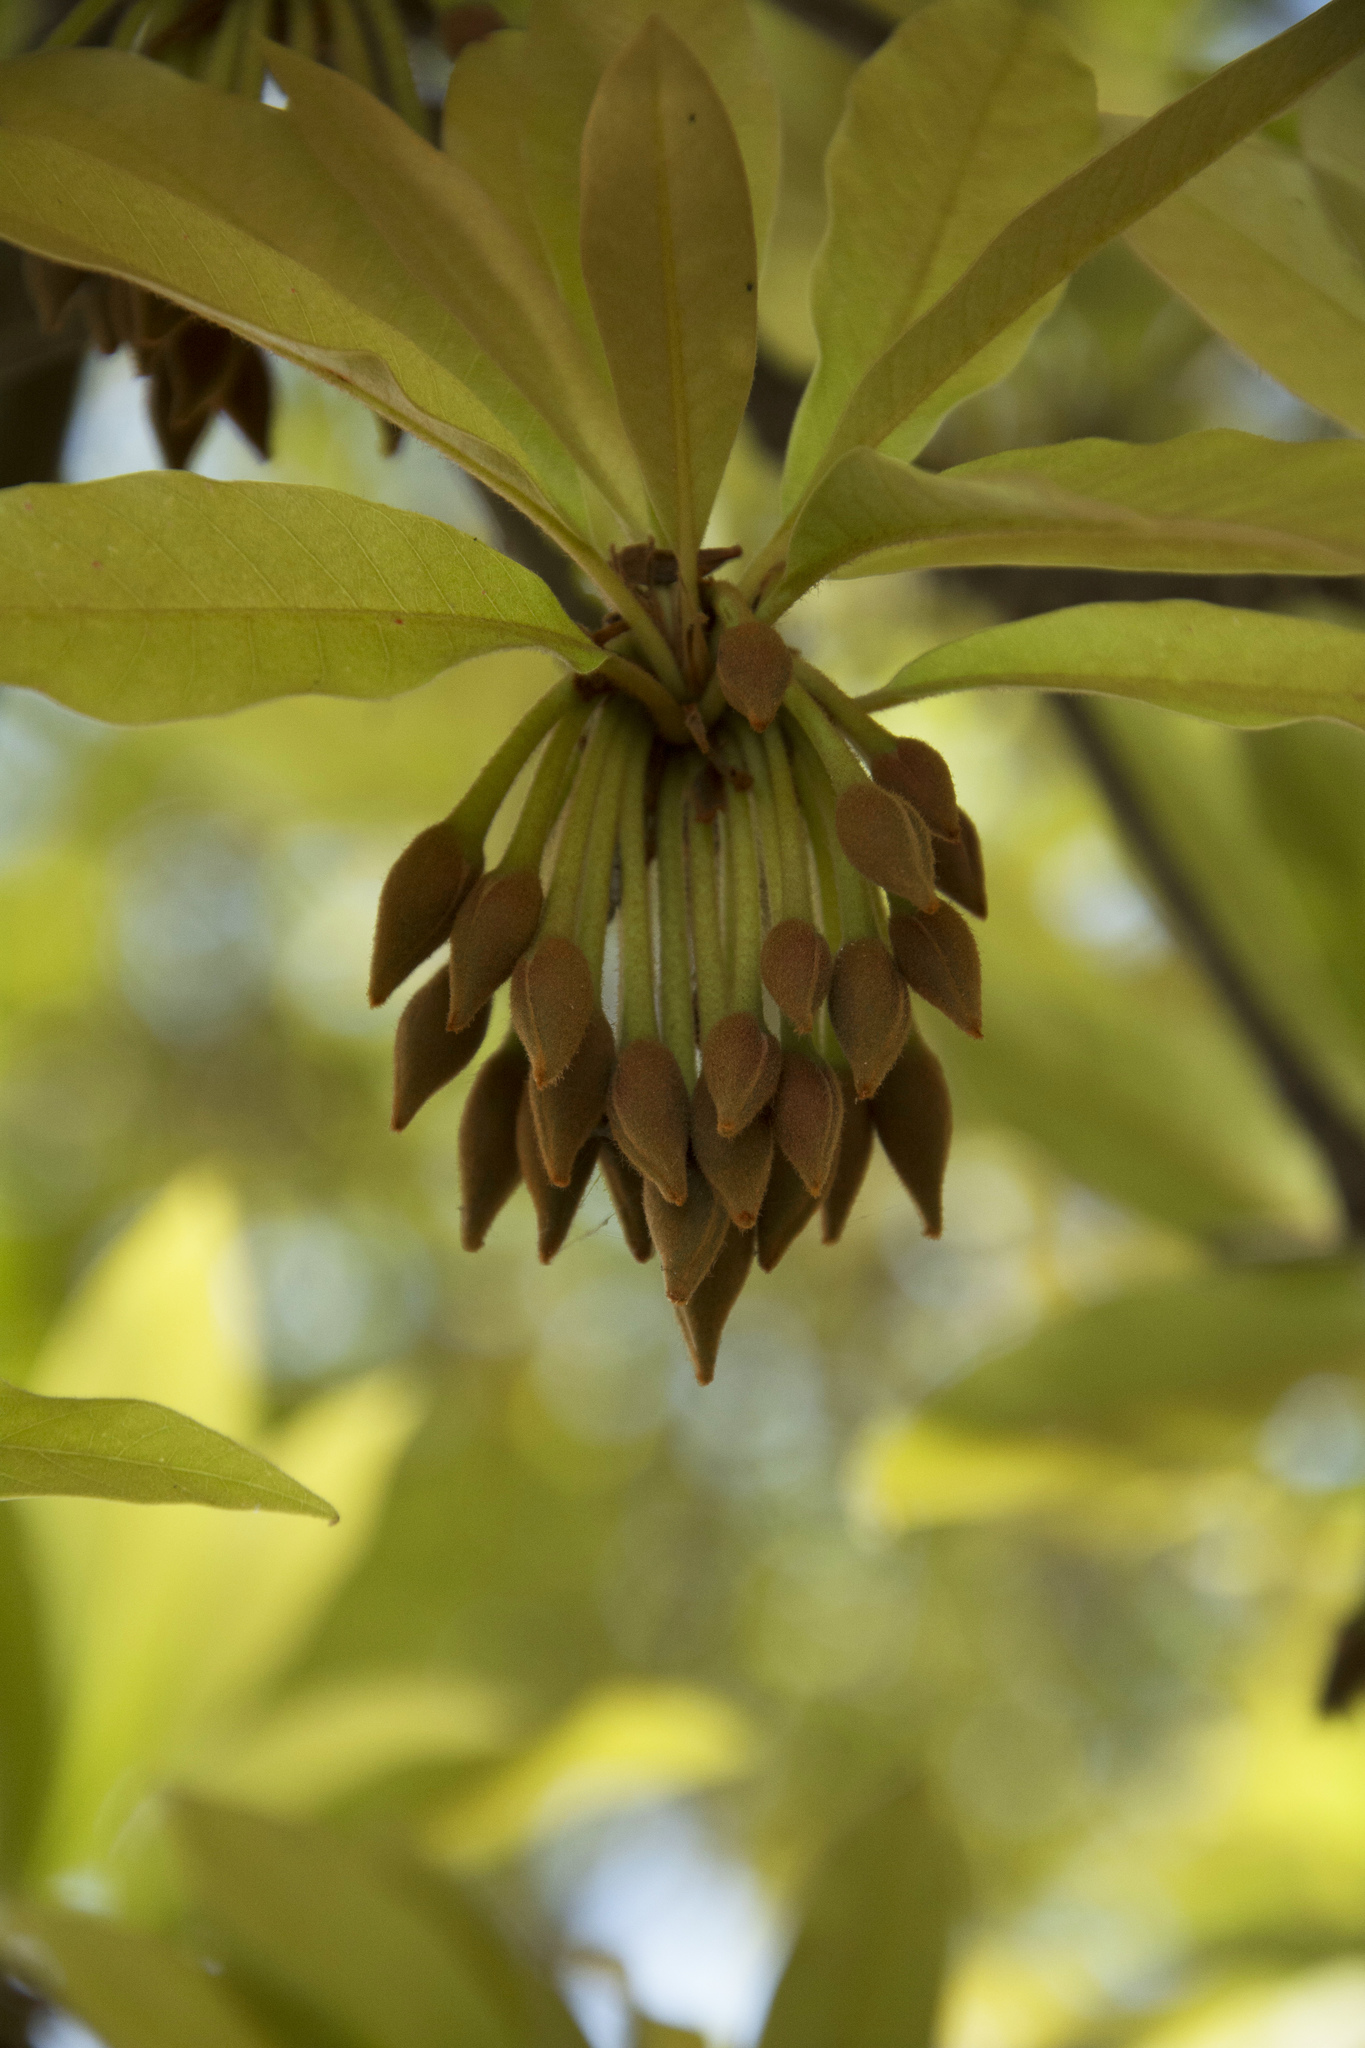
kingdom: Plantae
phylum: Tracheophyta
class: Magnoliopsida
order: Ericales
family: Sapotaceae
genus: Madhuca
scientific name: Madhuca longifolia
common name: Mowra-buttertree
